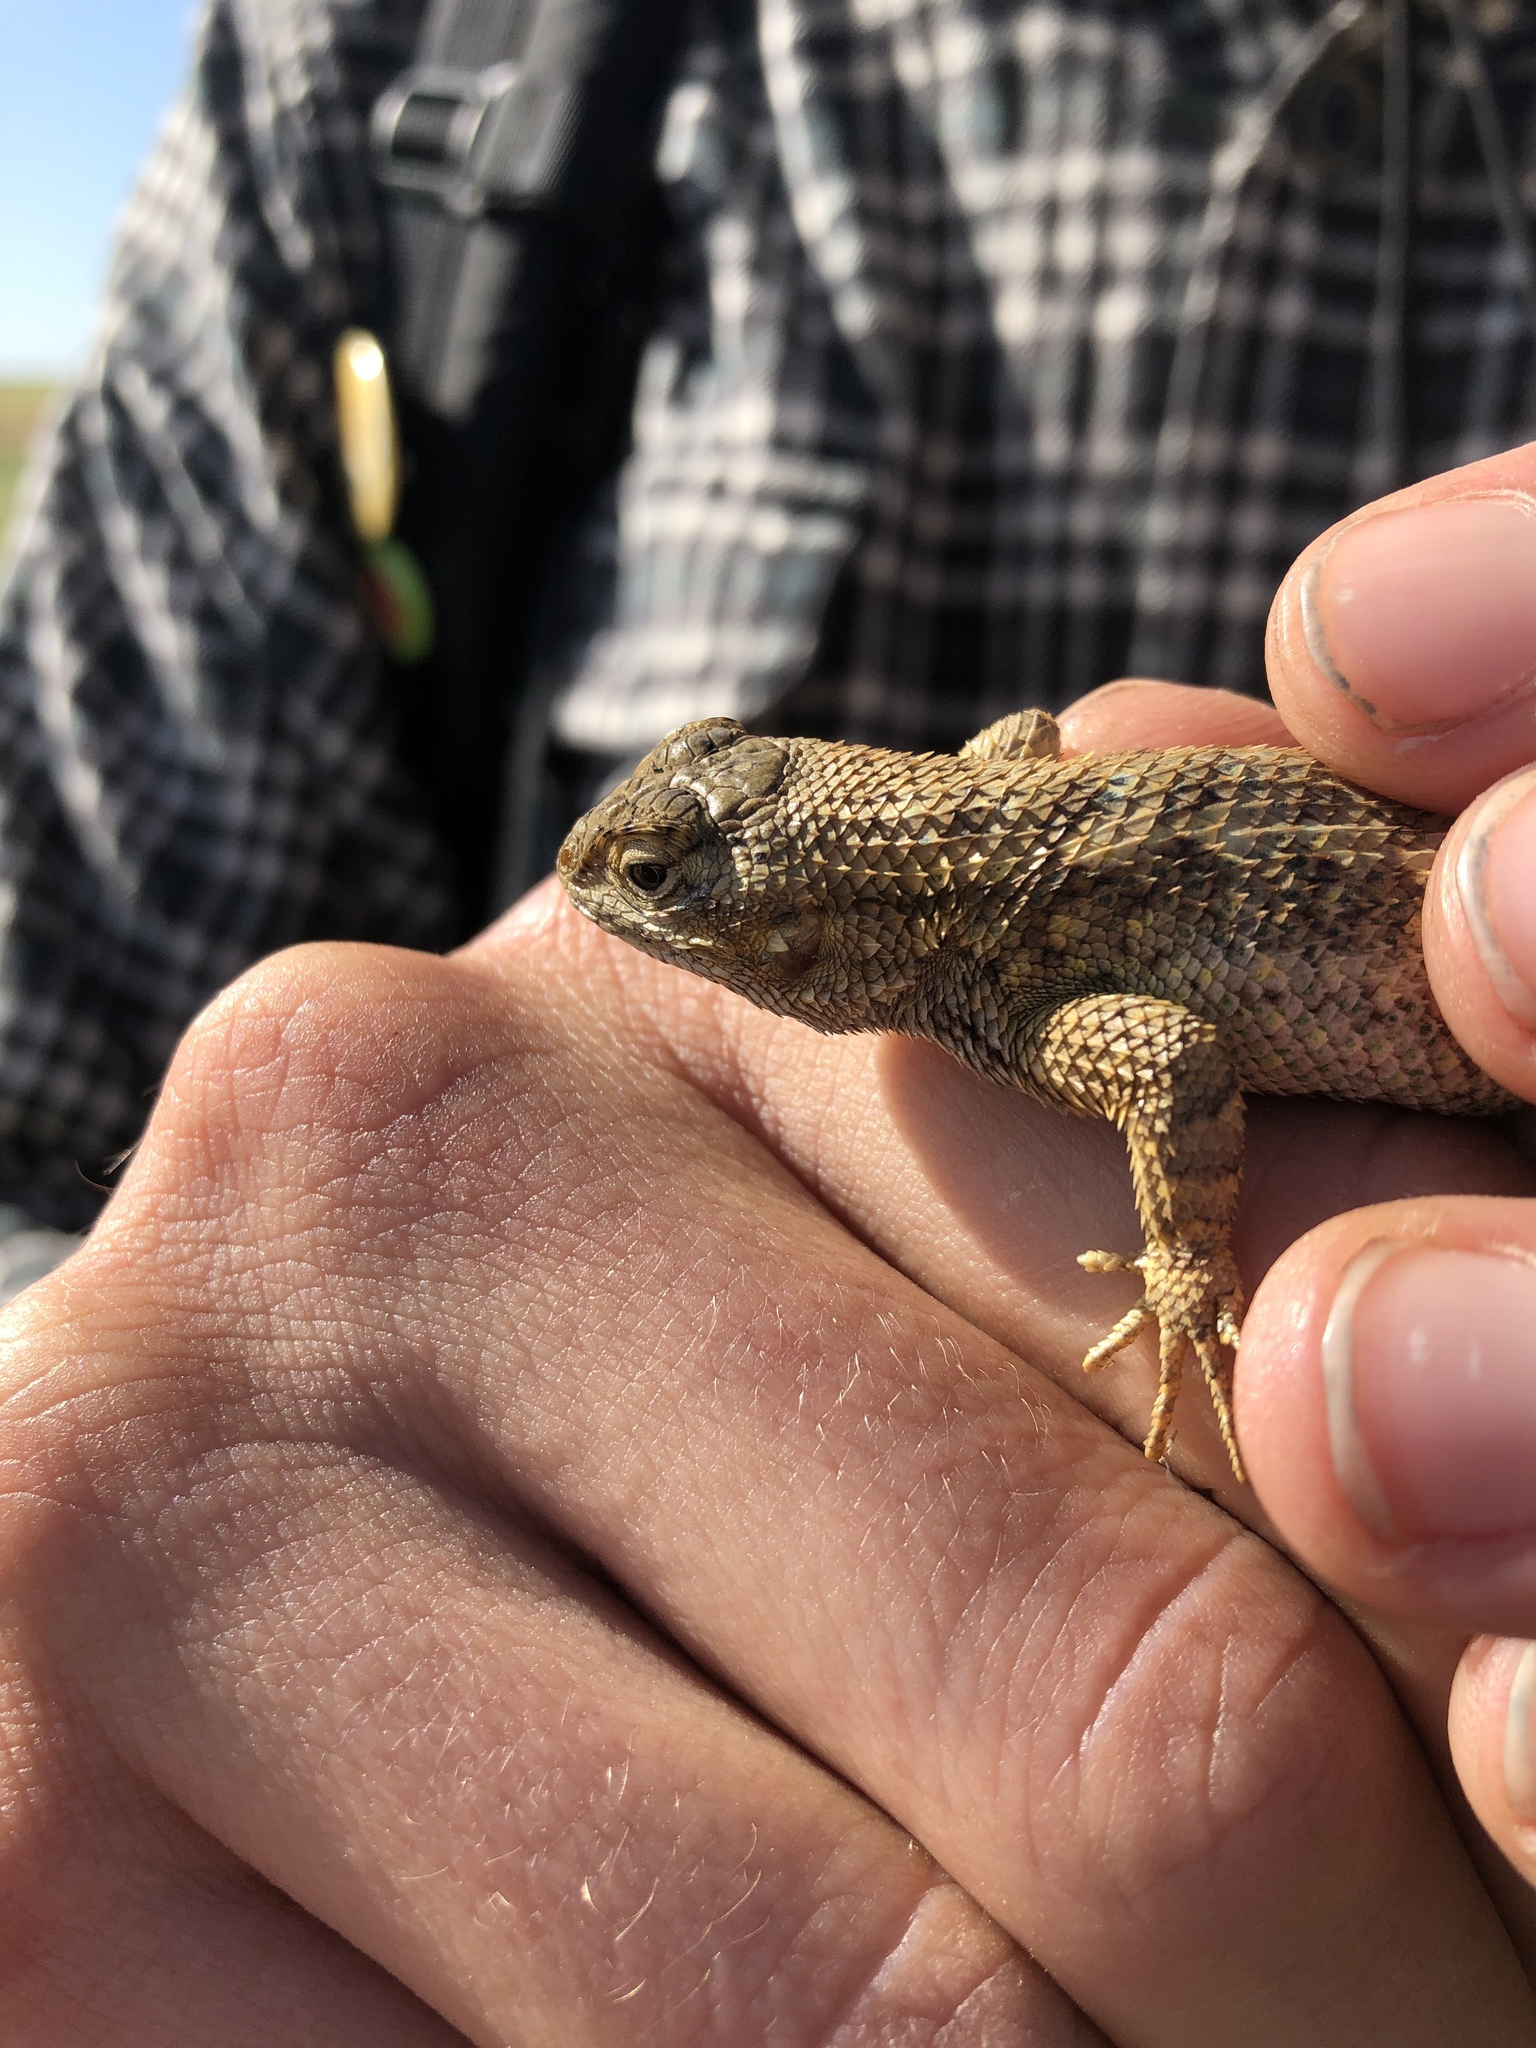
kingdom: Animalia
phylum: Chordata
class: Squamata
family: Phrynosomatidae
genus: Sceloporus
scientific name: Sceloporus occidentalis
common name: Western fence lizard
